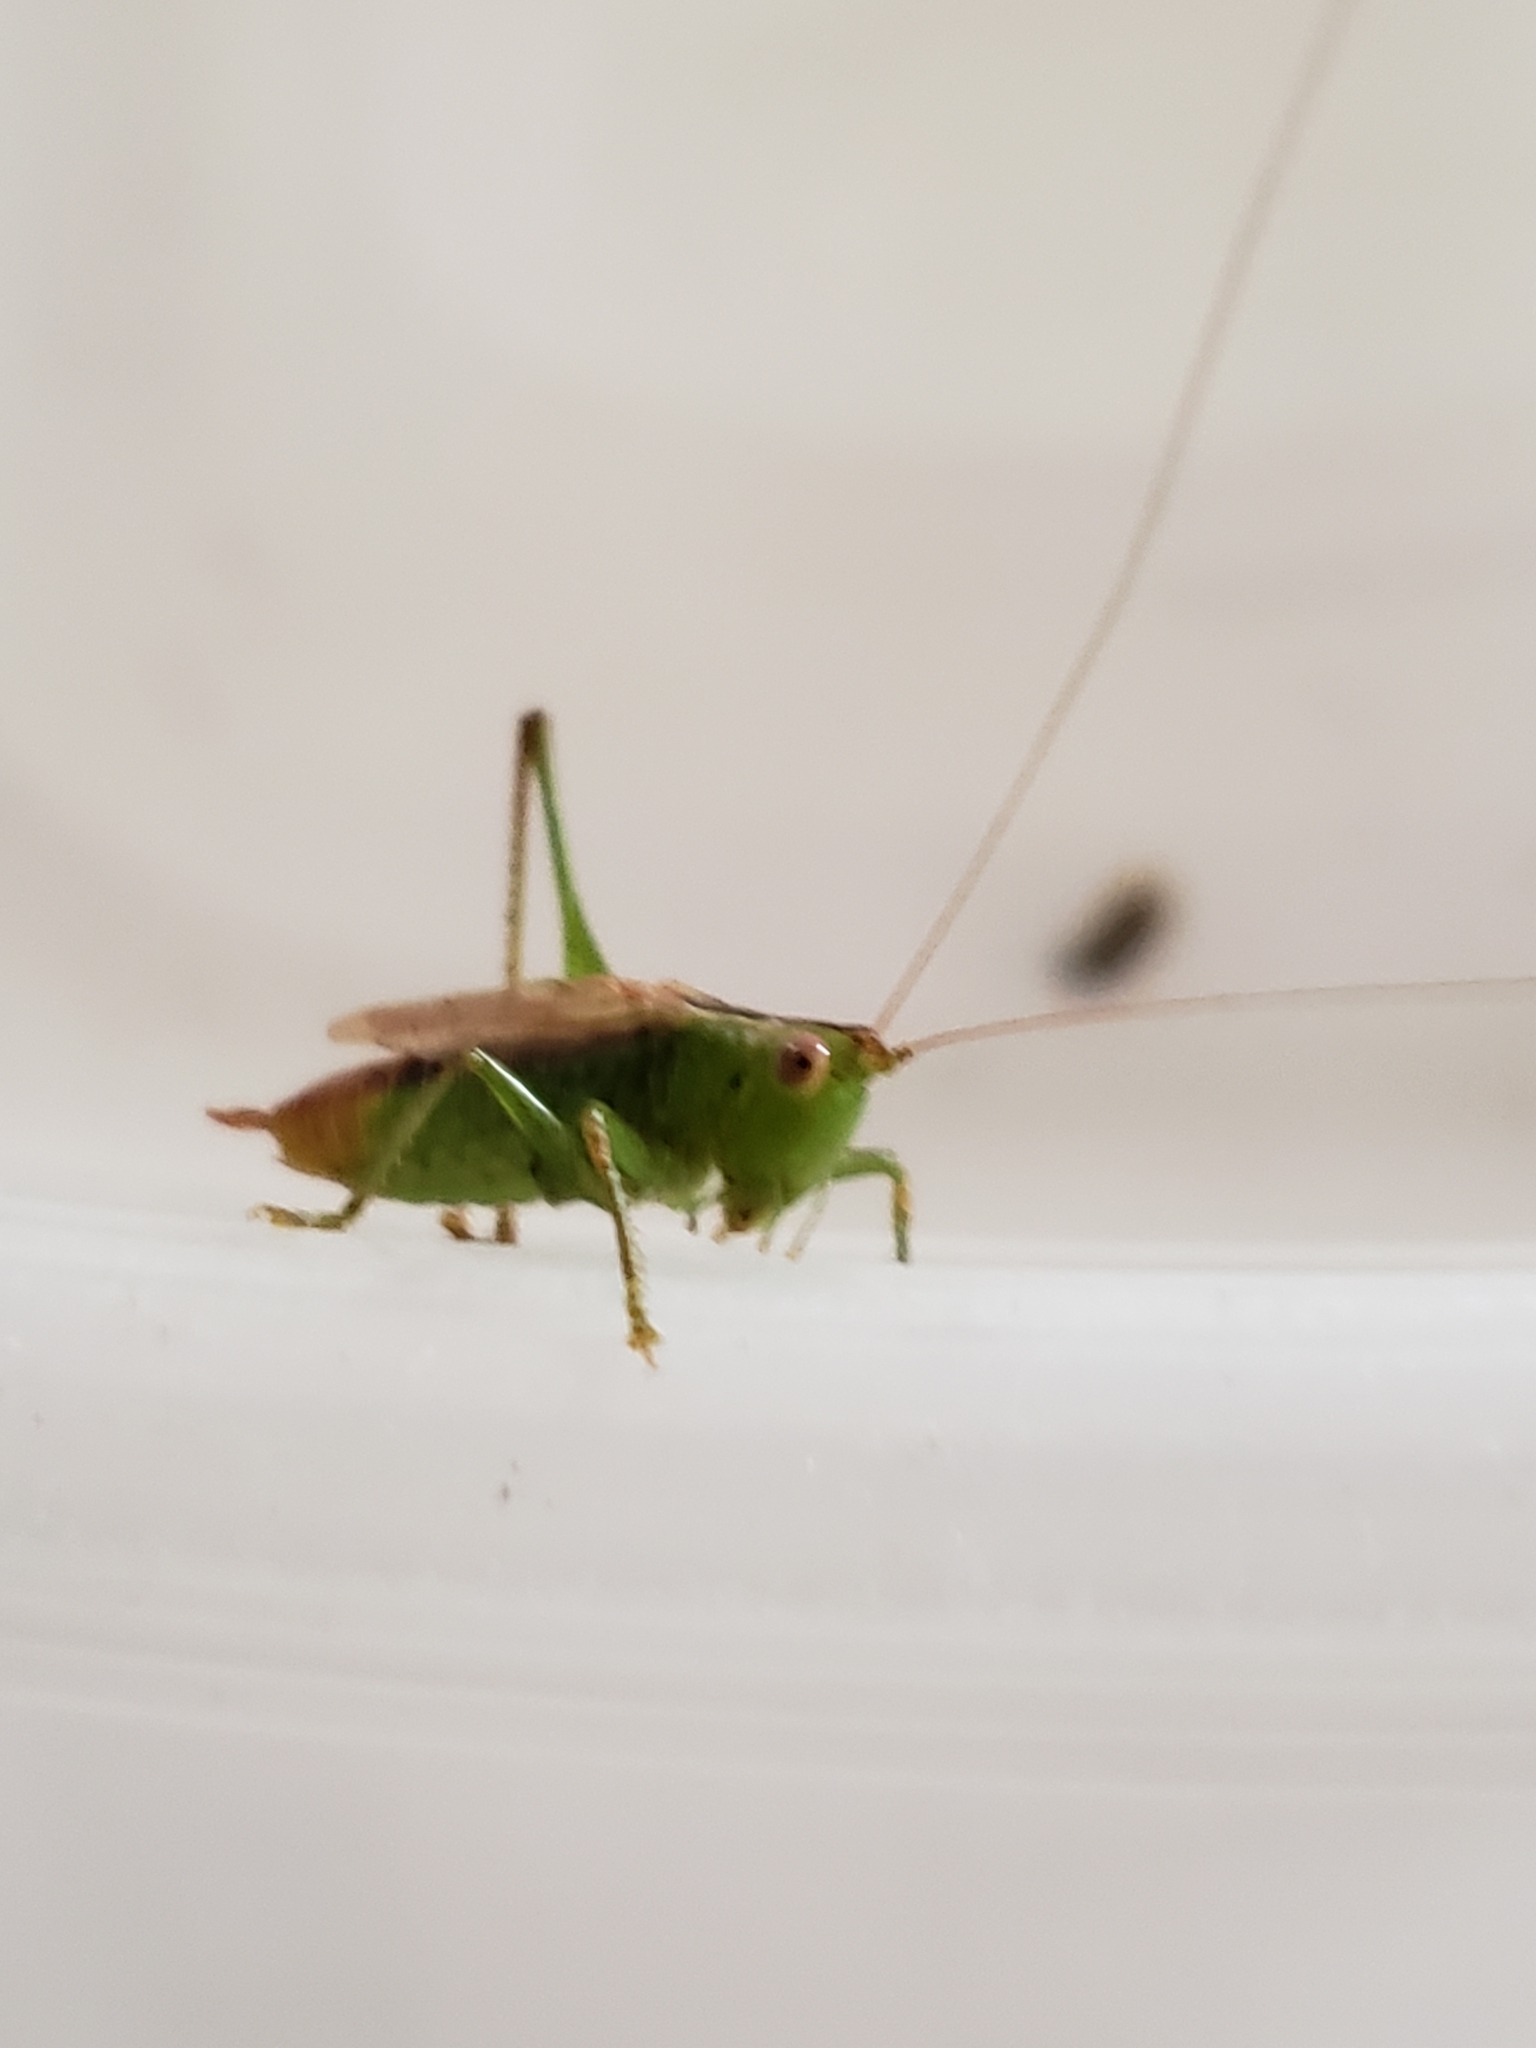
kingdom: Animalia
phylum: Arthropoda
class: Insecta
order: Orthoptera
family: Tettigoniidae
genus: Conocephalus
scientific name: Conocephalus brevipennis
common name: Short-winged meadow katydid
